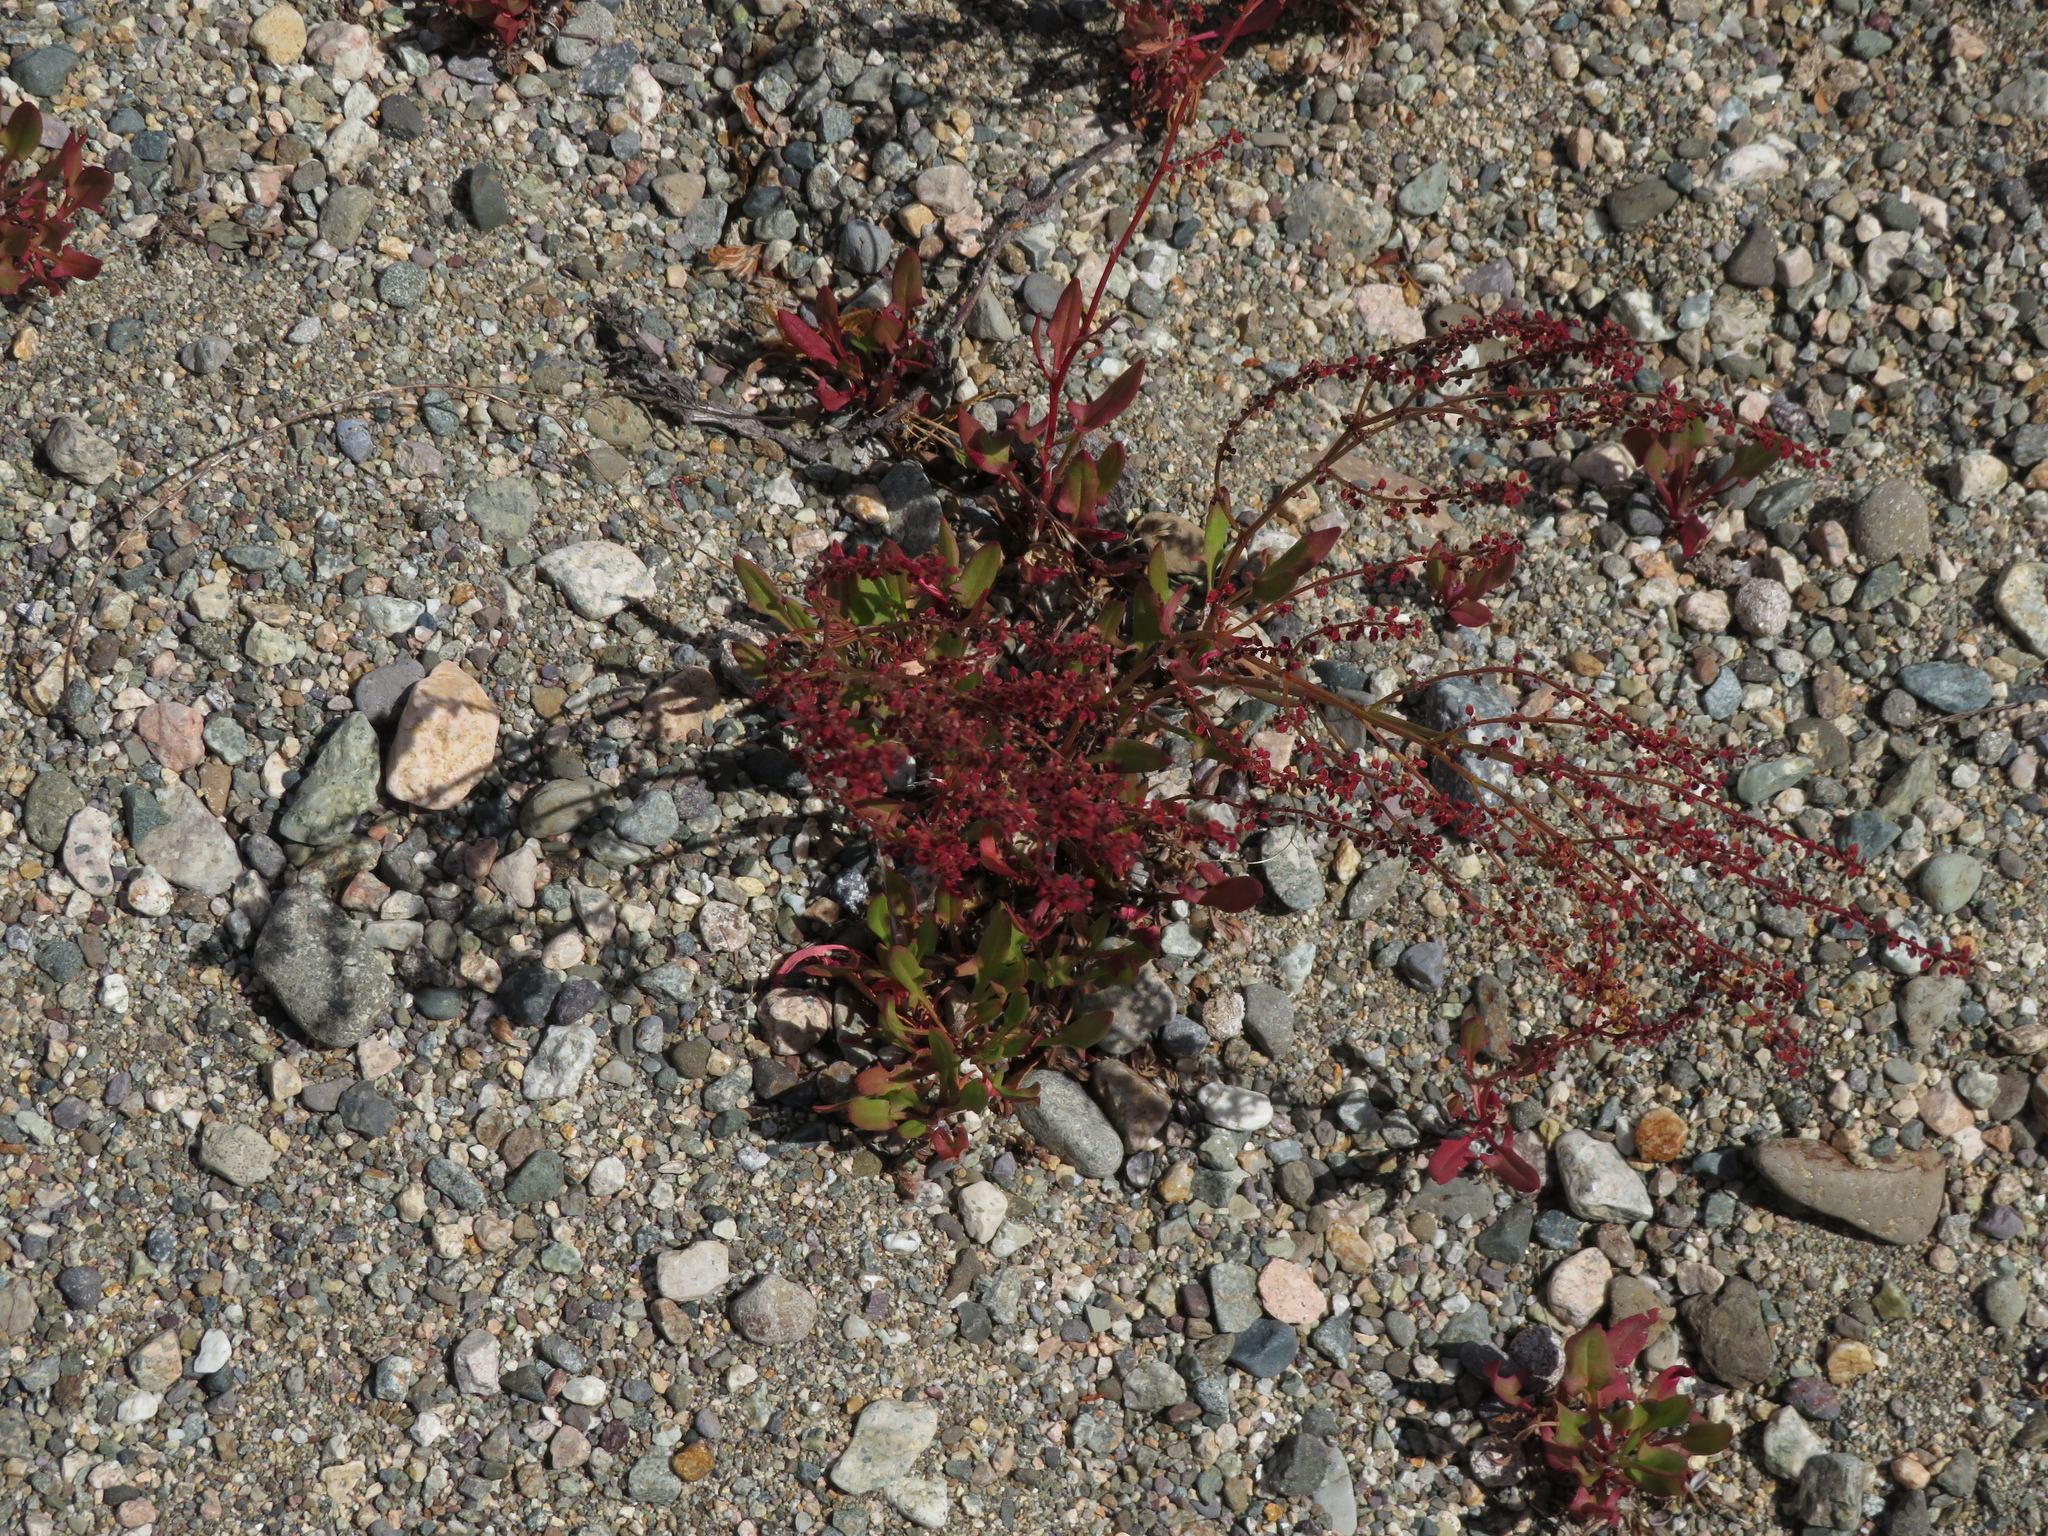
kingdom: Plantae
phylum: Tracheophyta
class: Magnoliopsida
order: Caryophyllales
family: Polygonaceae
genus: Rumex
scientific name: Rumex acetosella
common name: Common sheep sorrel
